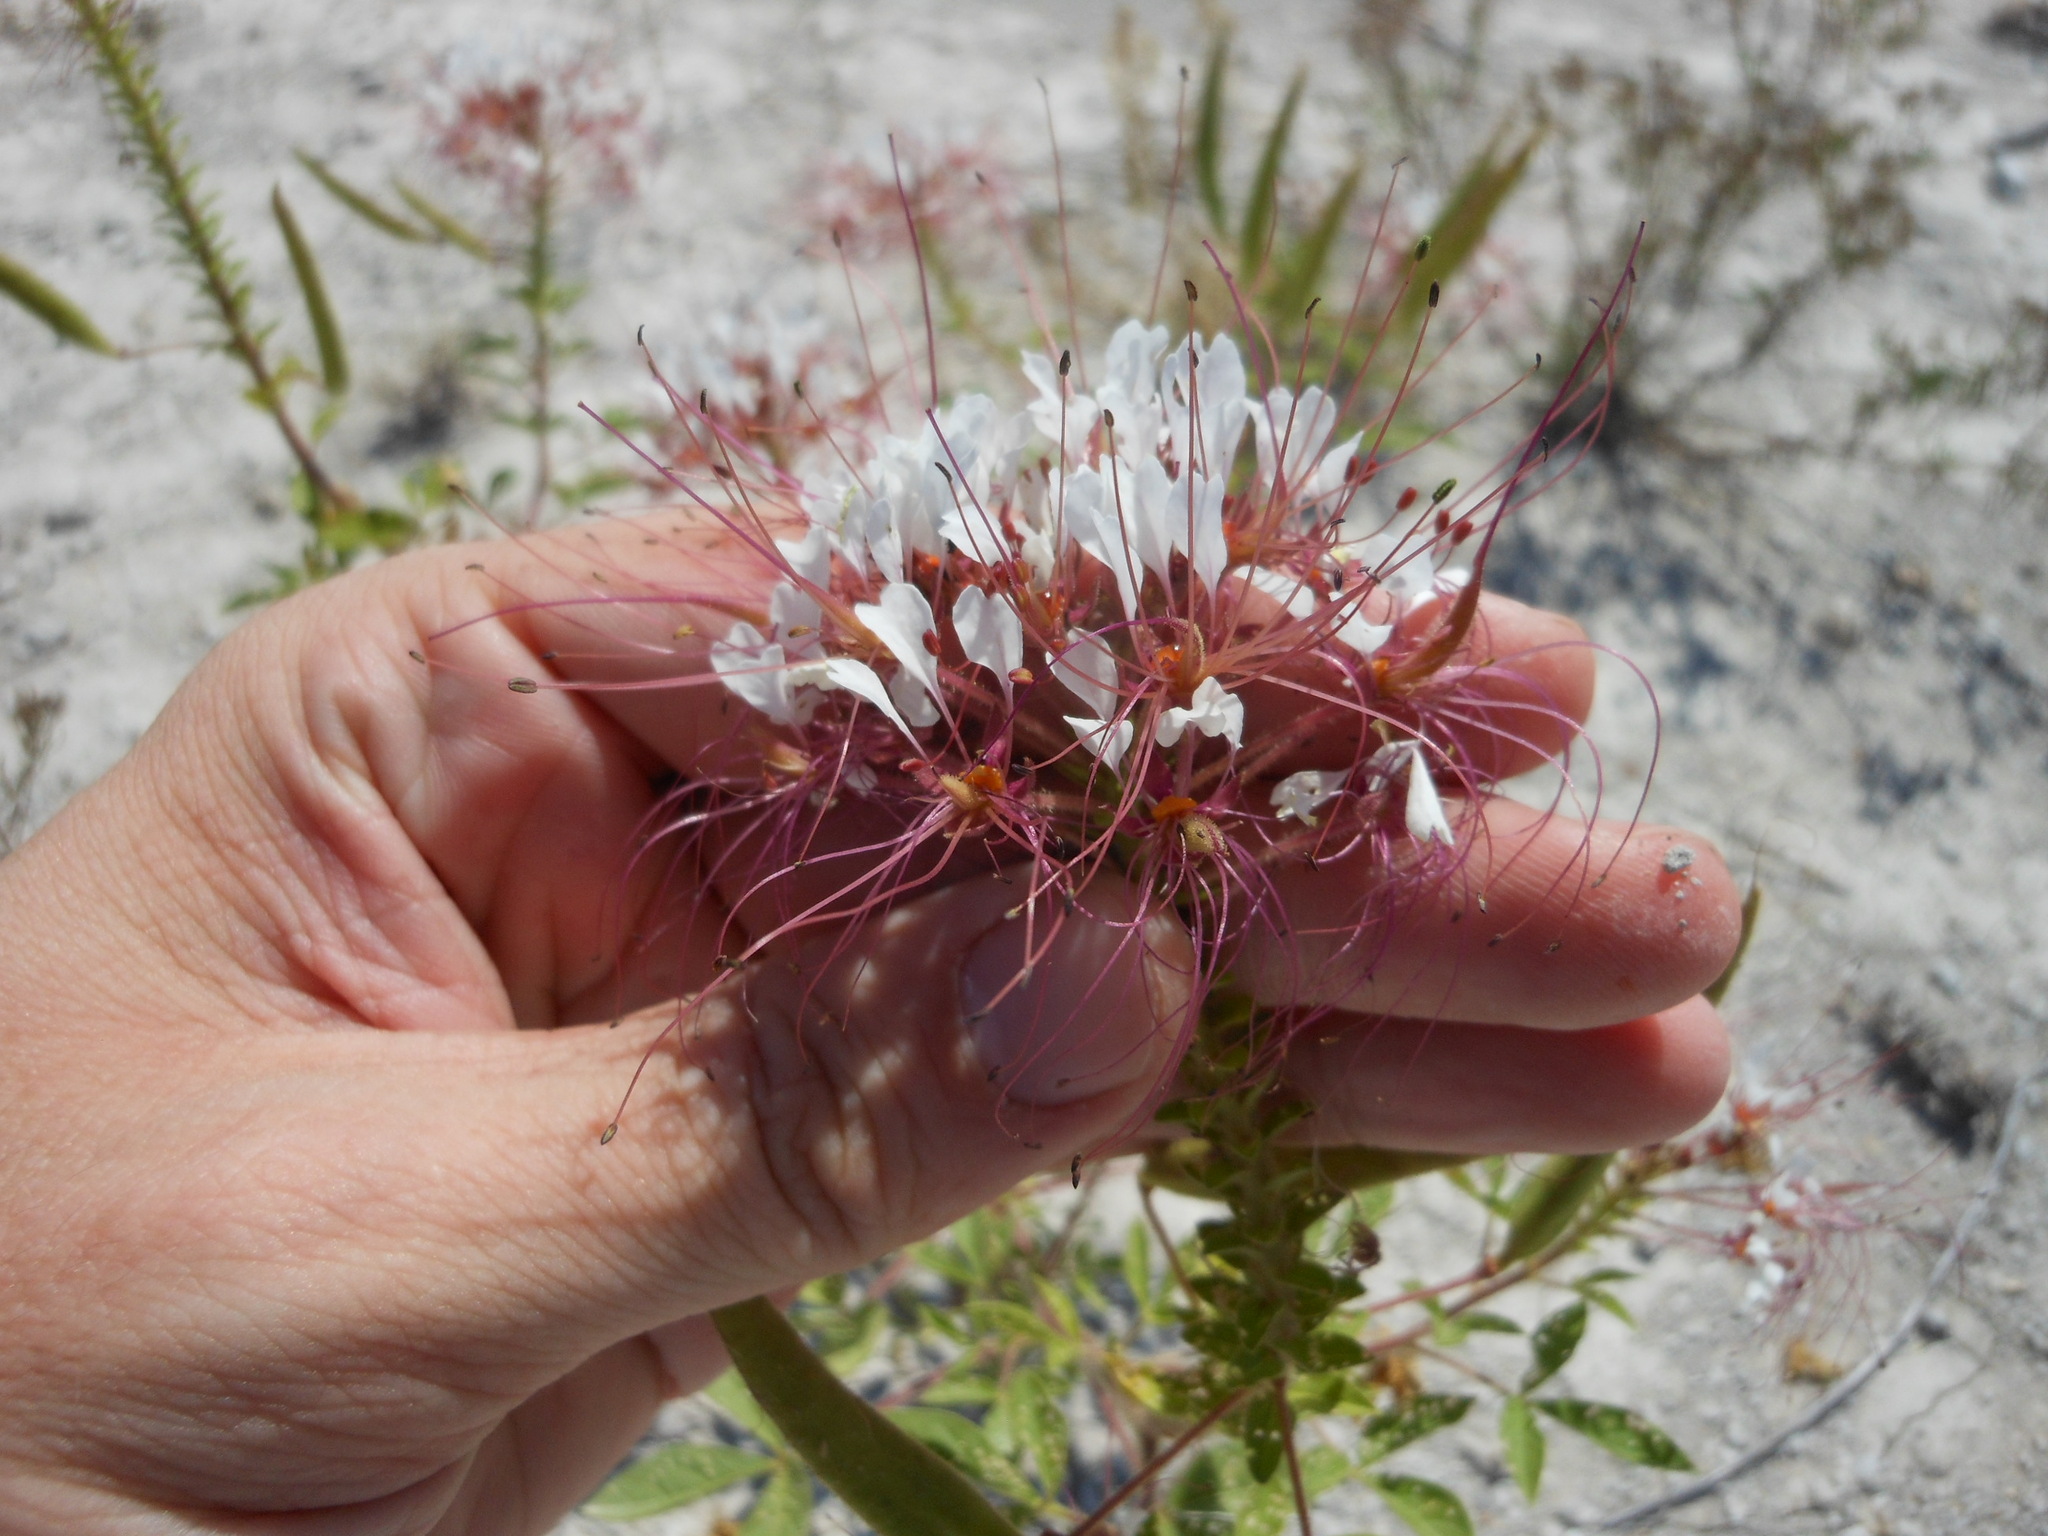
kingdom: Plantae
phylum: Tracheophyta
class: Magnoliopsida
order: Brassicales
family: Cleomaceae
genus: Polanisia
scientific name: Polanisia dodecandra
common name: Clammyweed
